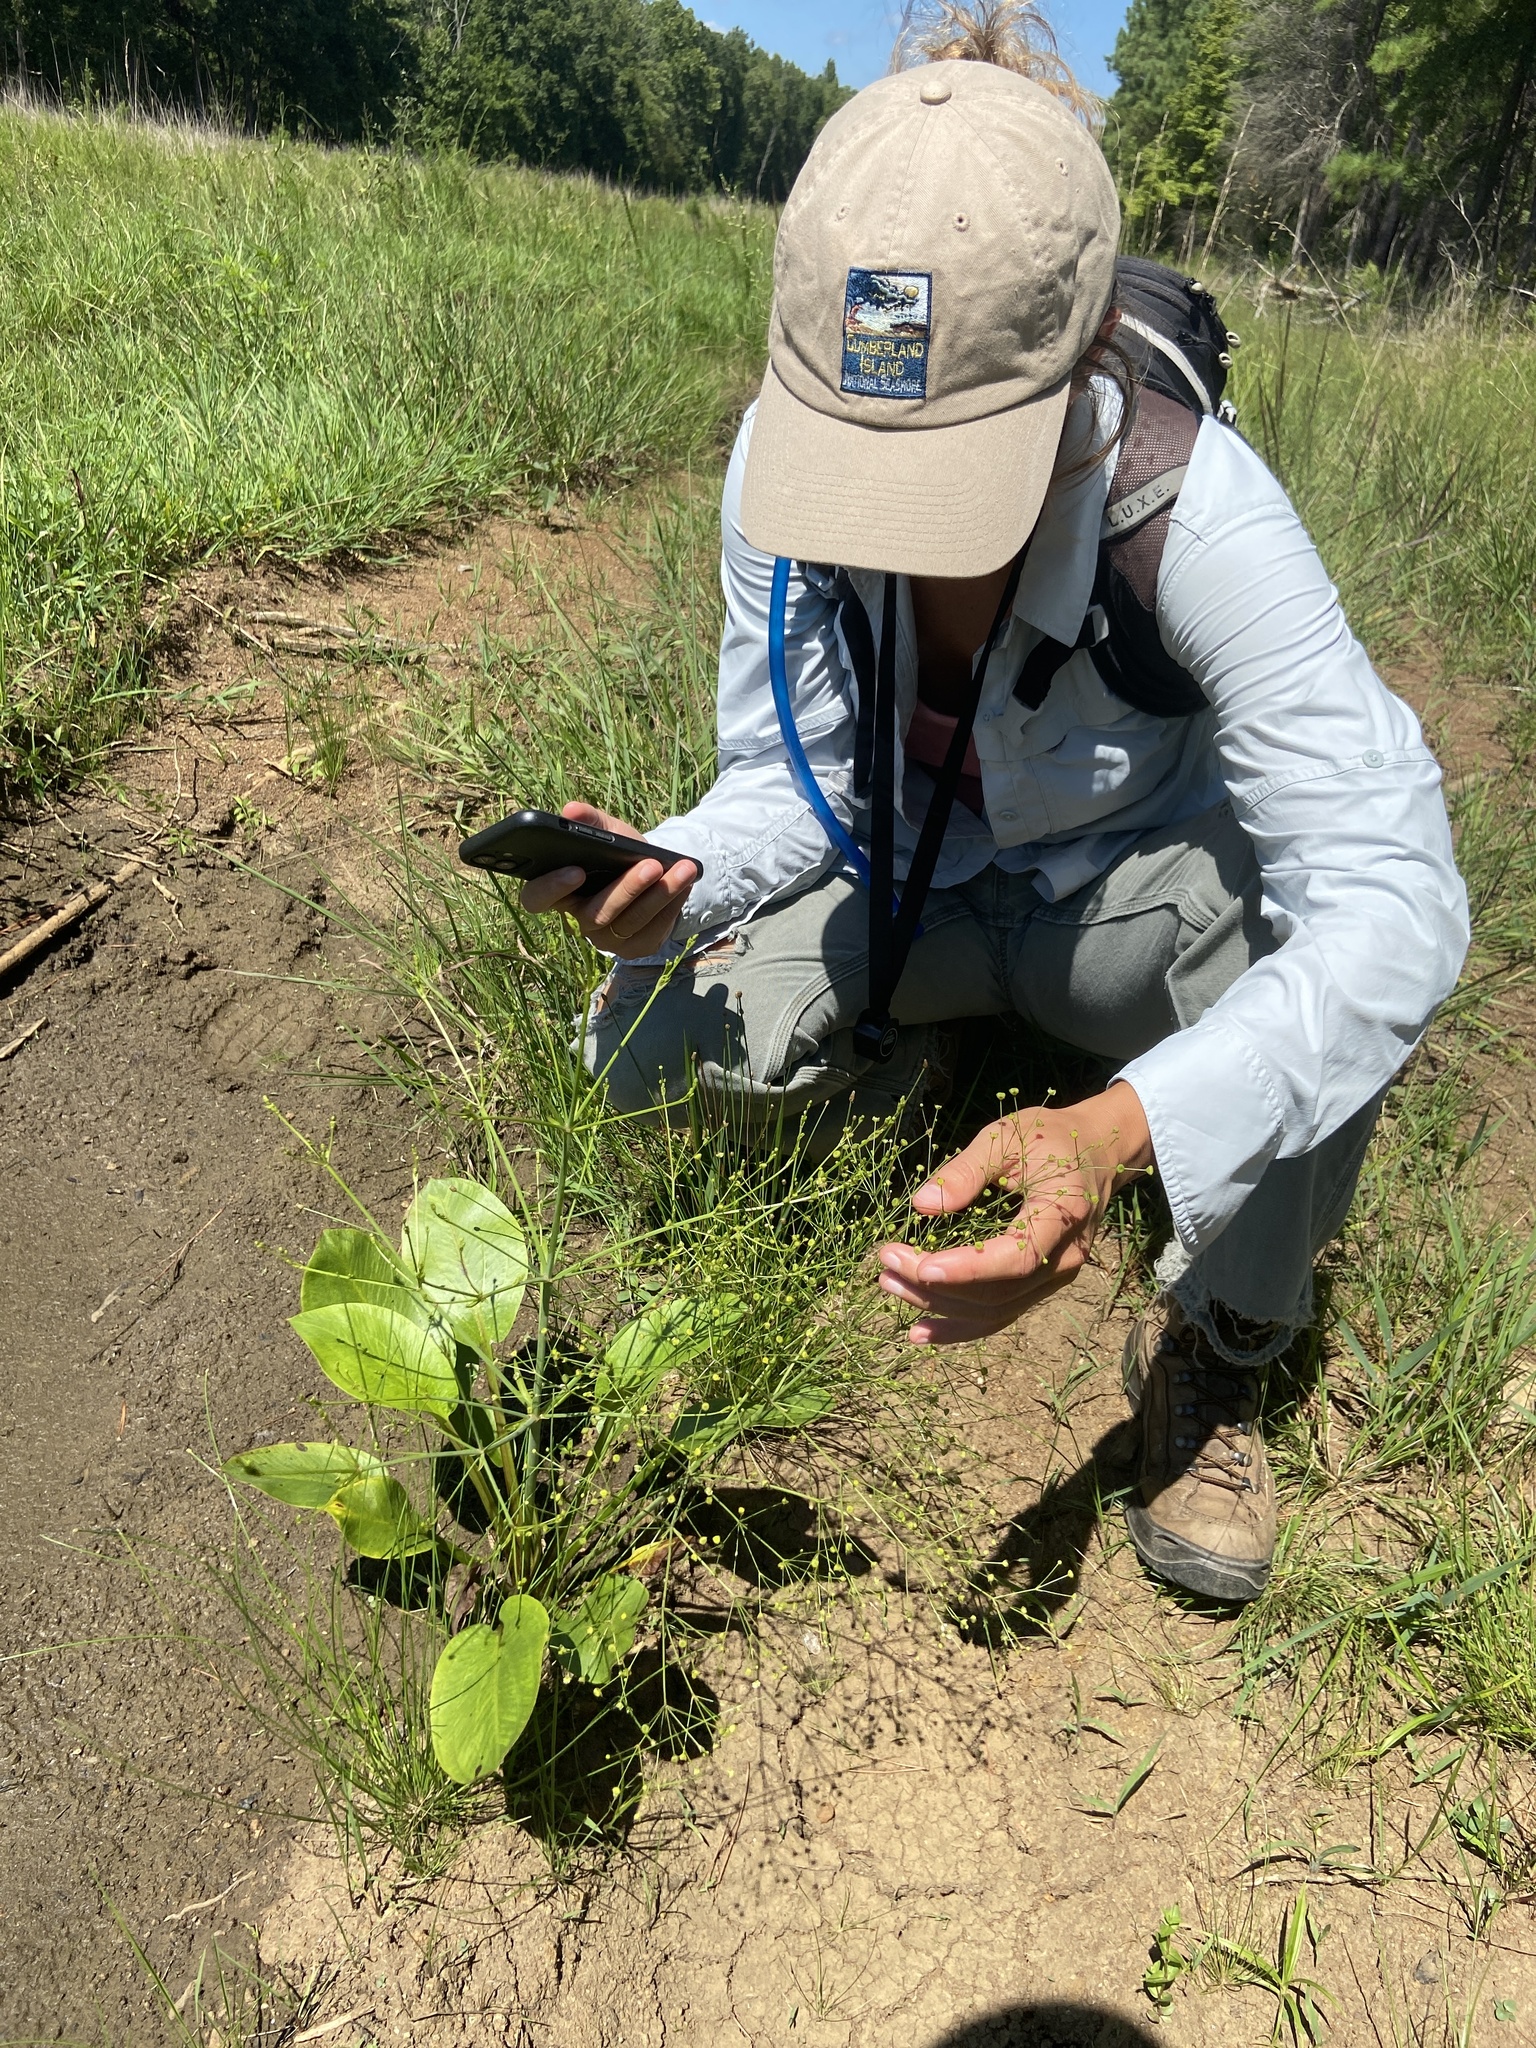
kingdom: Plantae
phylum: Tracheophyta
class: Liliopsida
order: Alismatales
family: Alismataceae
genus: Alisma
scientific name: Alisma subcordatum
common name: Southern water-plantain
